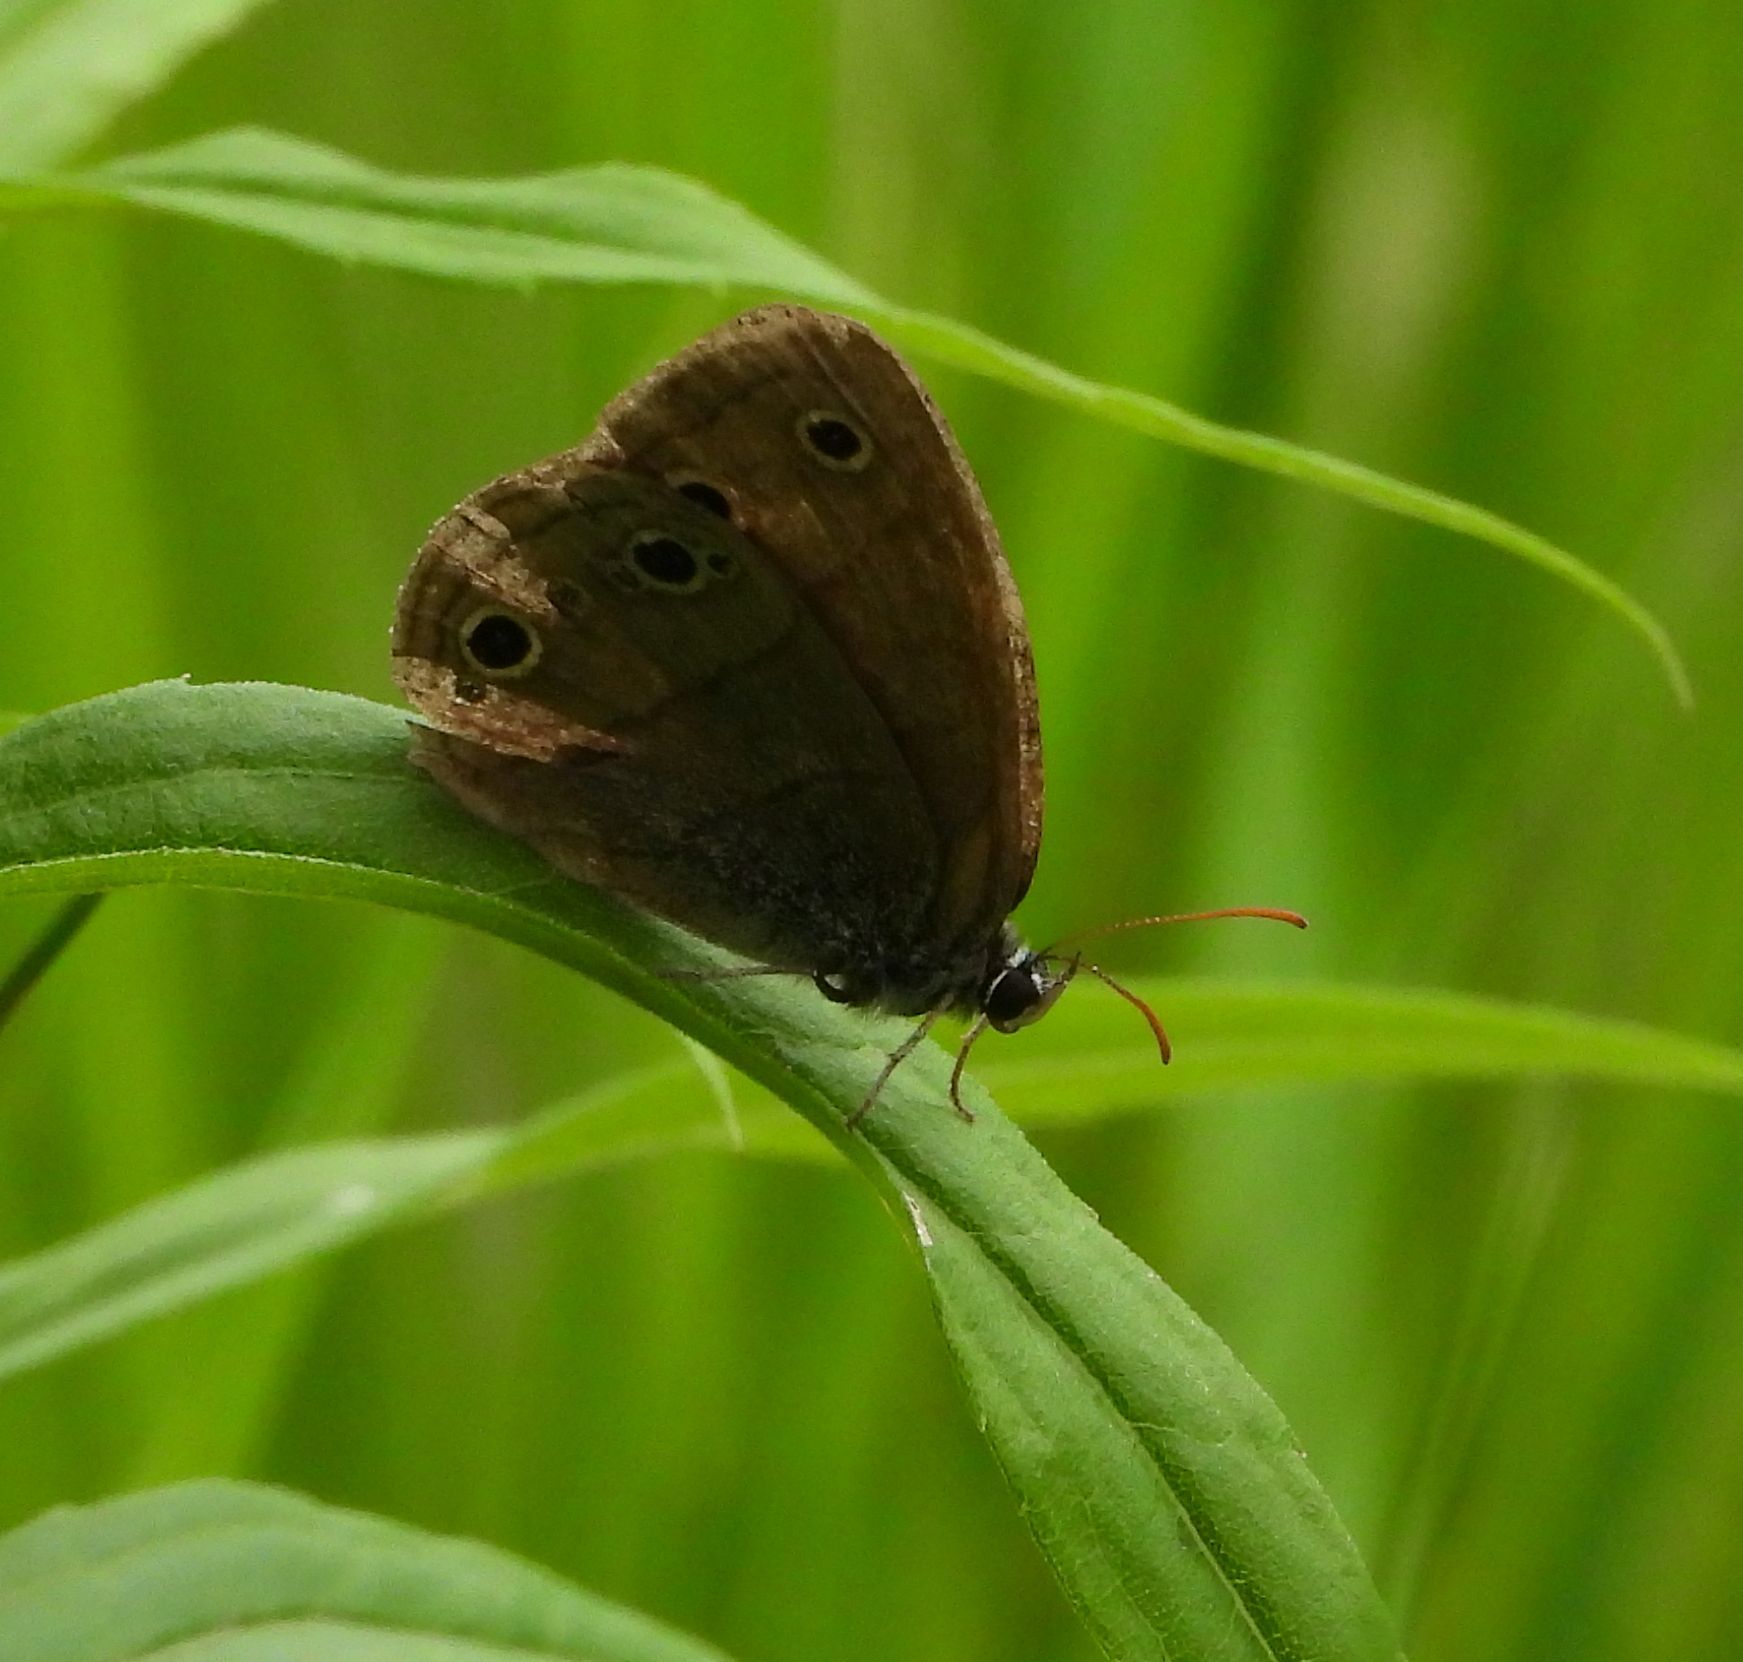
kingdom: Animalia
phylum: Arthropoda
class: Insecta
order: Lepidoptera
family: Nymphalidae
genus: Euptychia
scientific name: Euptychia cymela
